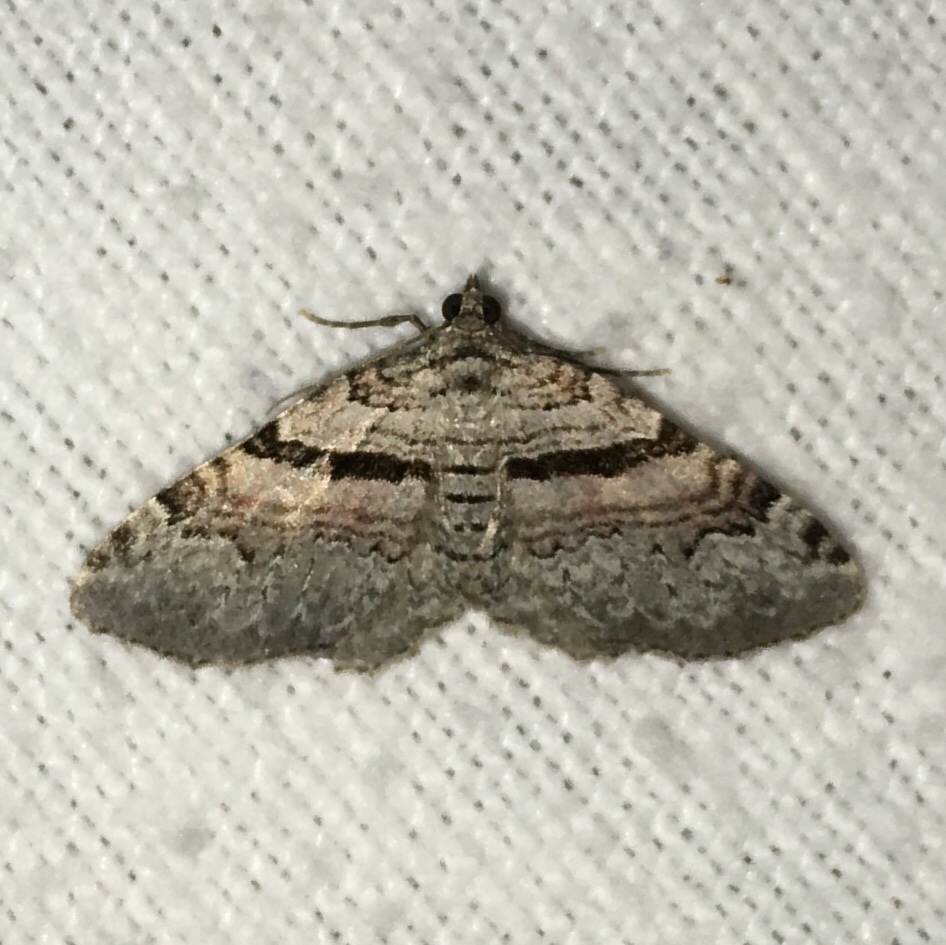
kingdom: Animalia
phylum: Arthropoda
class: Insecta
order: Lepidoptera
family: Geometridae
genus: Xanthorhoe
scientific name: Xanthorhoe packardata
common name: Packard's carpet
